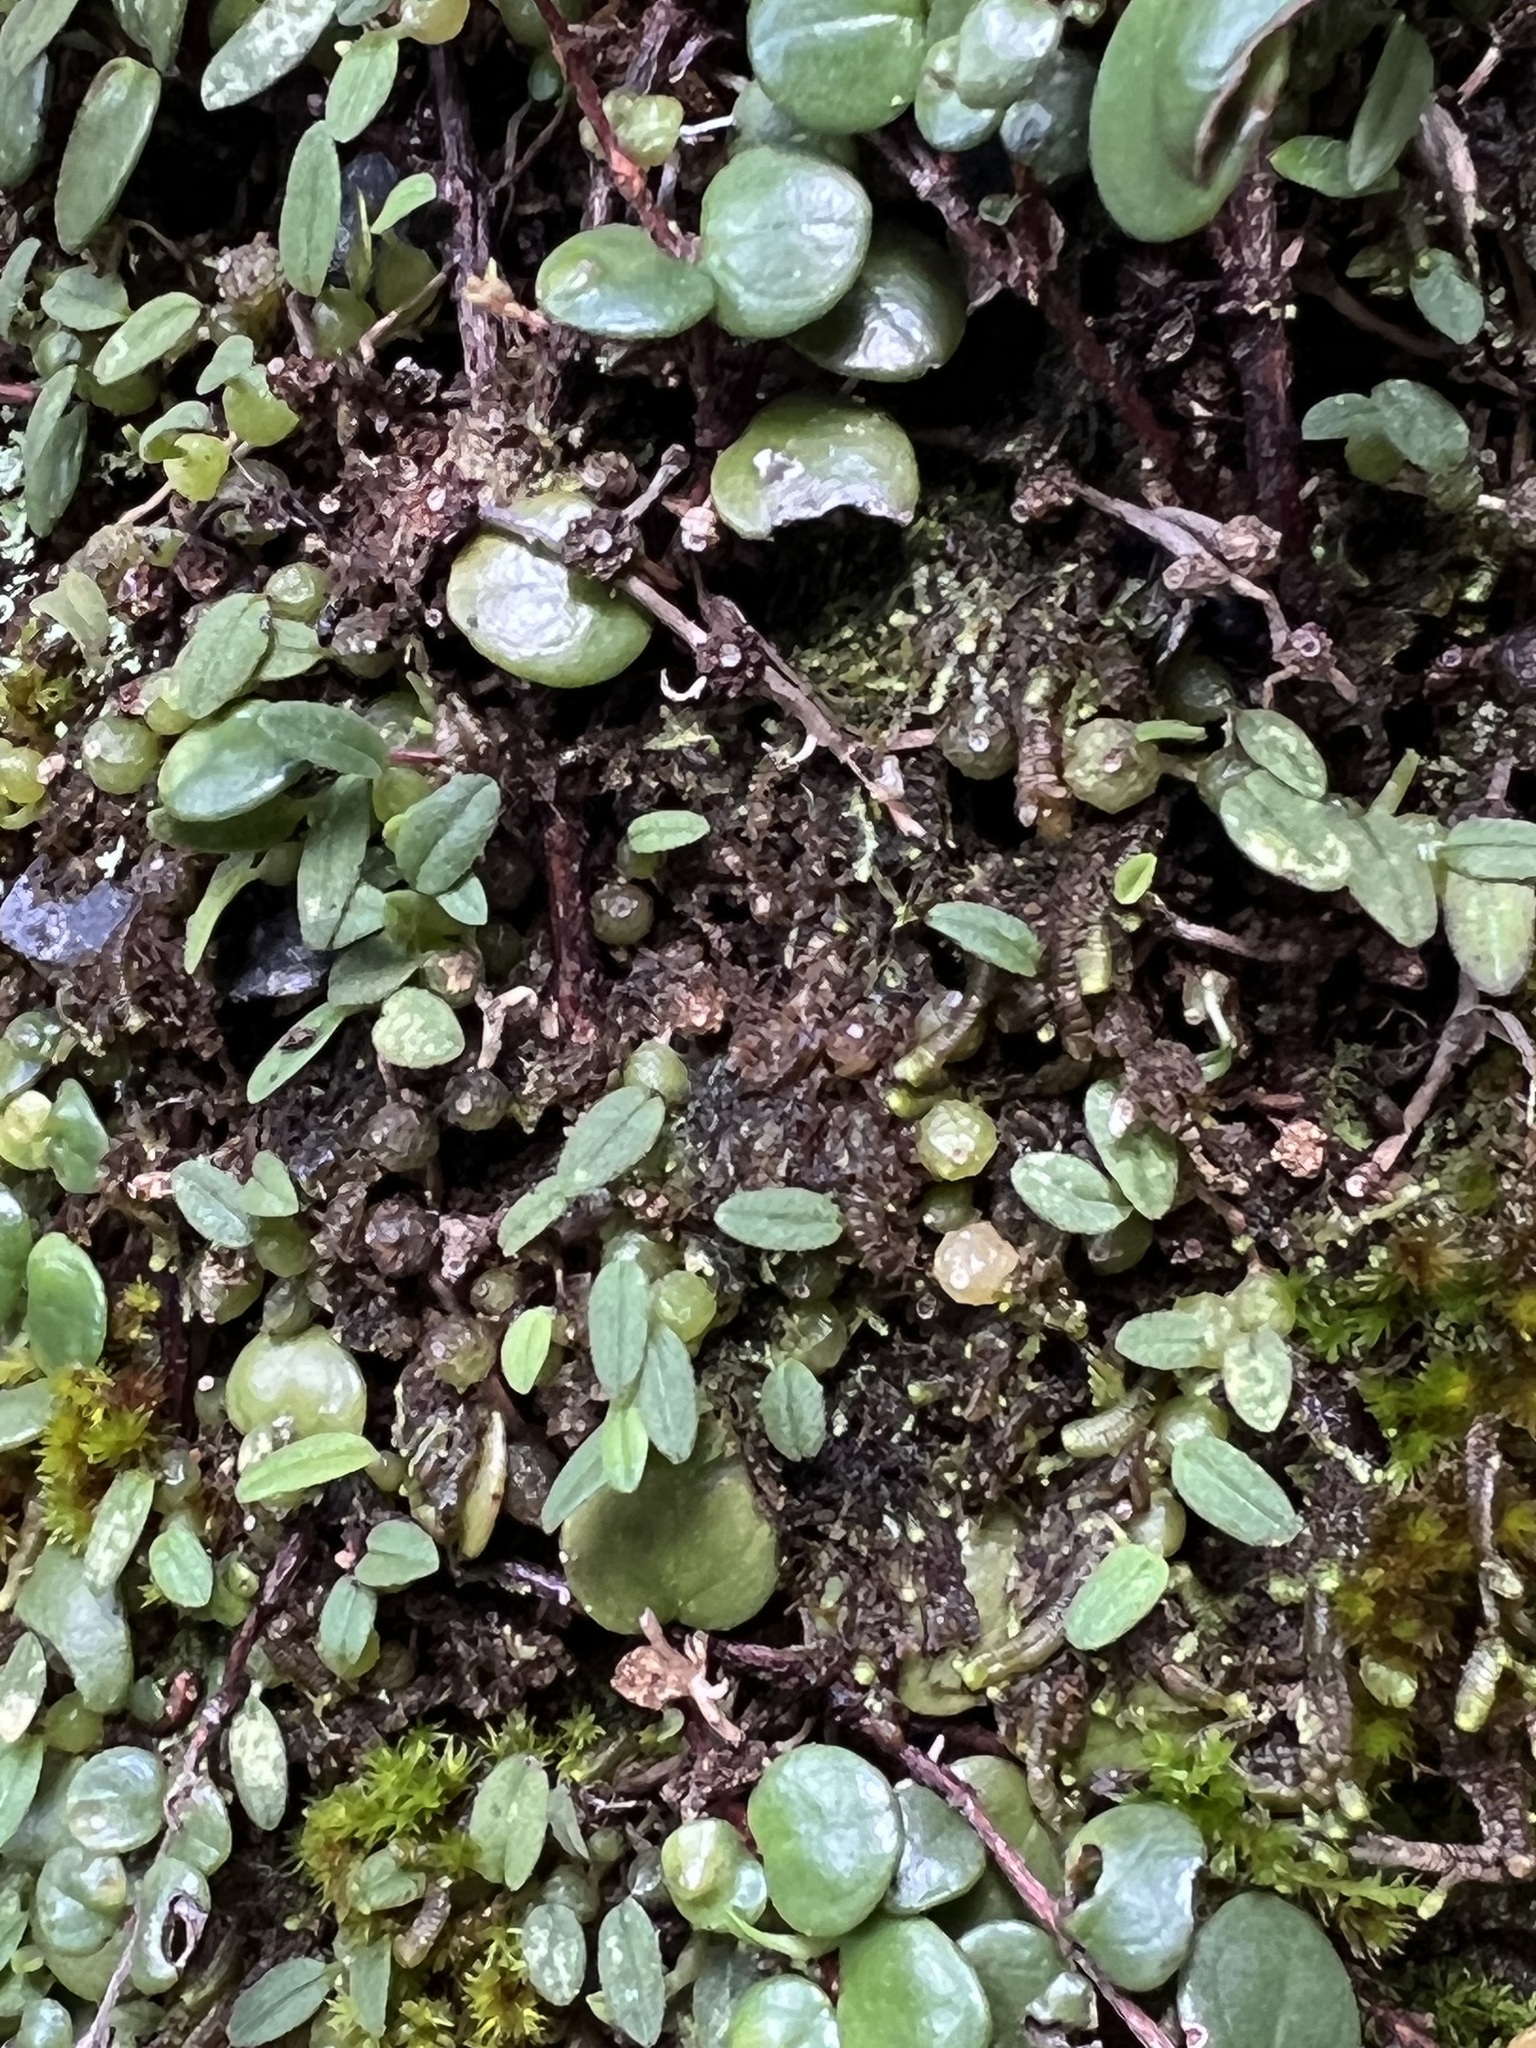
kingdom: Plantae
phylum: Tracheophyta
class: Liliopsida
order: Asparagales
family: Orchidaceae
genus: Bulbophyllum
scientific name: Bulbophyllum pygmaeum
